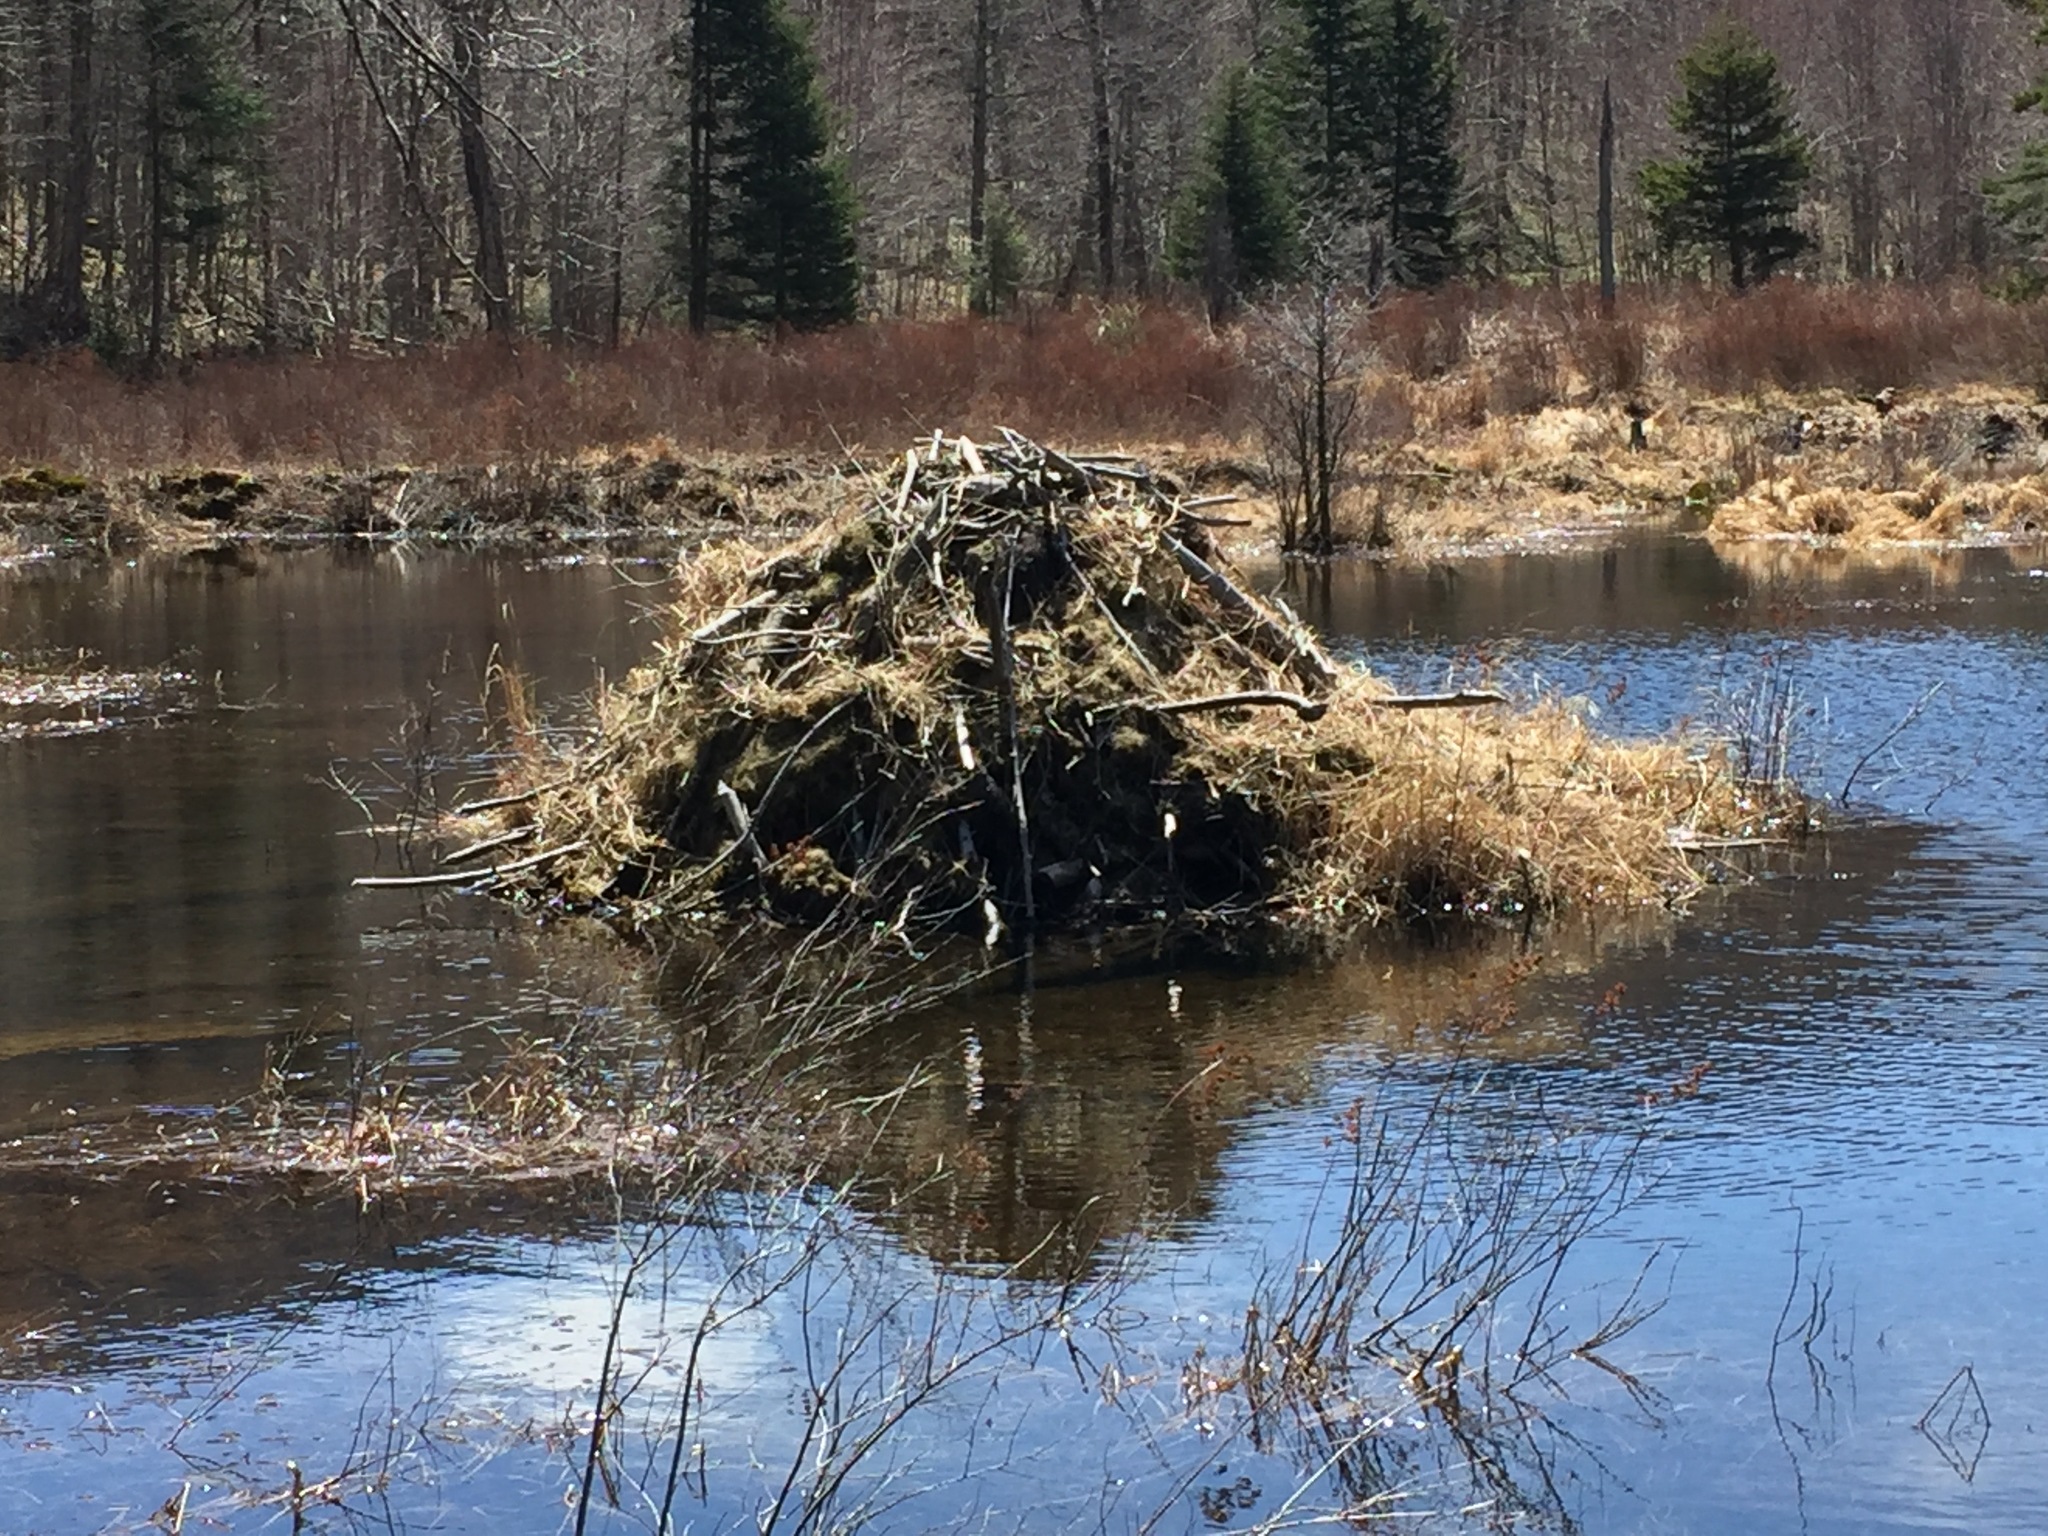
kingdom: Animalia
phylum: Chordata
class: Mammalia
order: Rodentia
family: Castoridae
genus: Castor
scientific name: Castor canadensis
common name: American beaver
